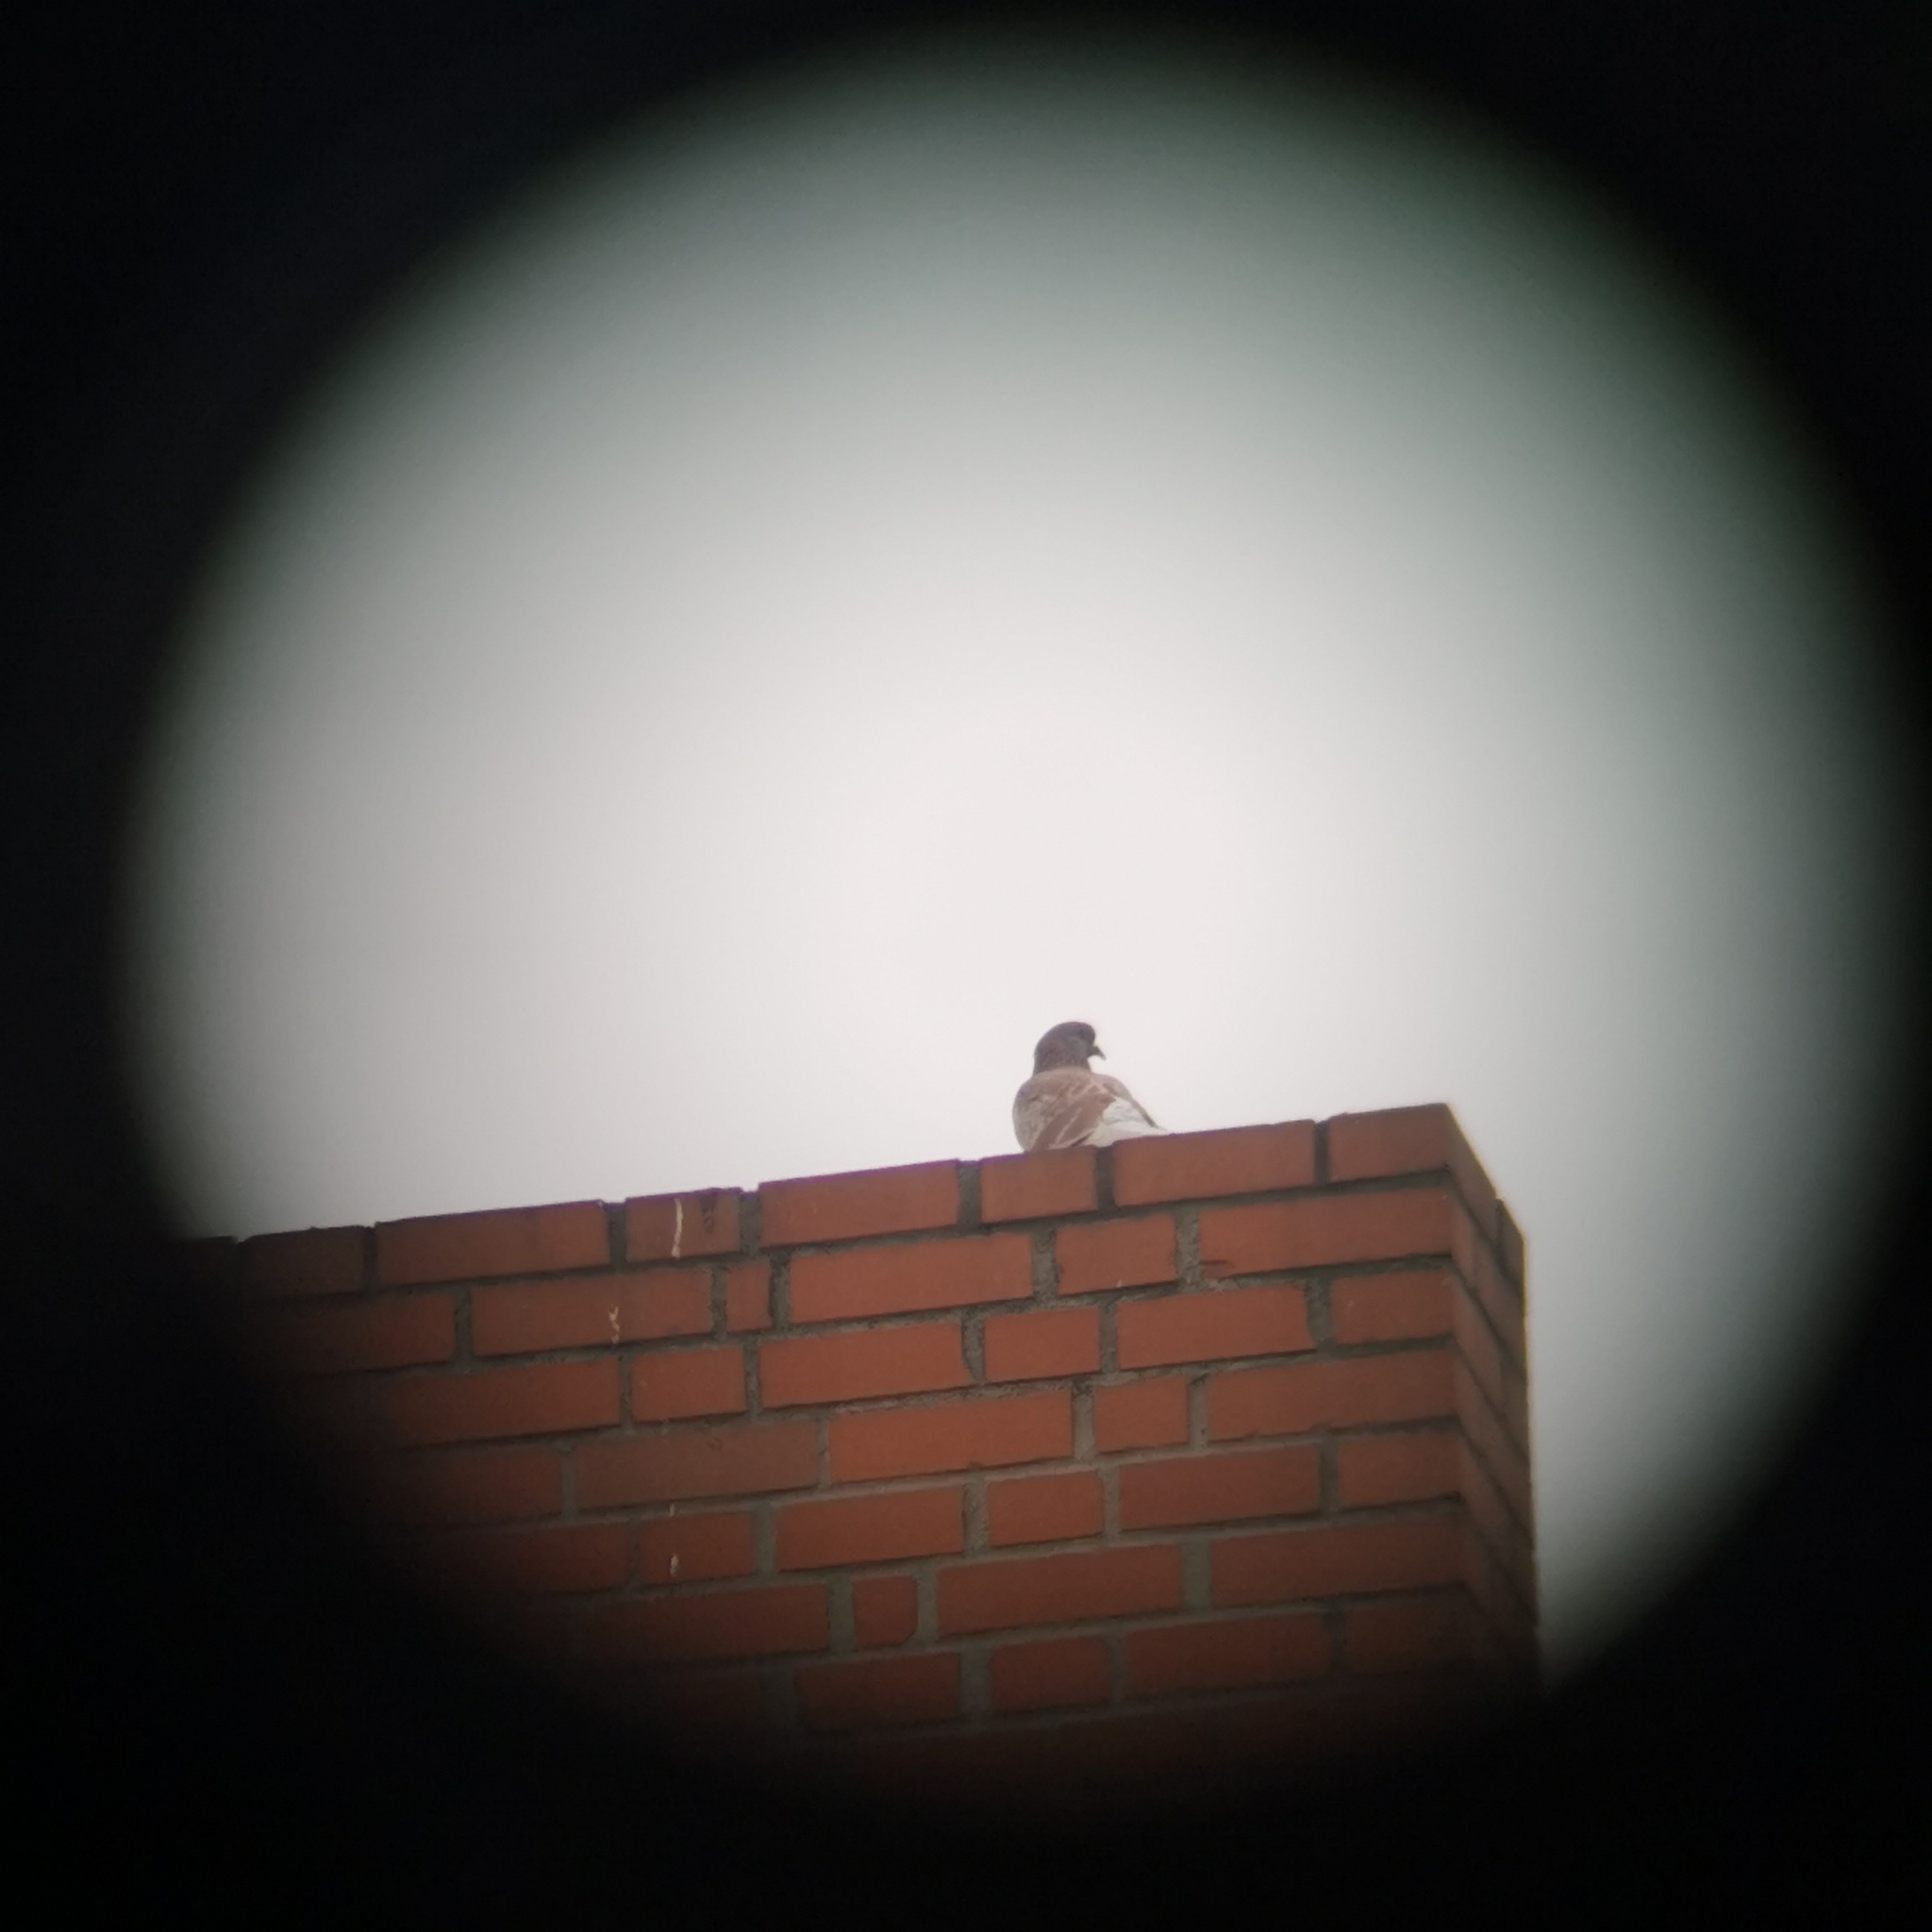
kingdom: Animalia
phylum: Chordata
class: Aves
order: Columbiformes
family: Columbidae
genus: Columba
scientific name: Columba livia
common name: Rock pigeon
